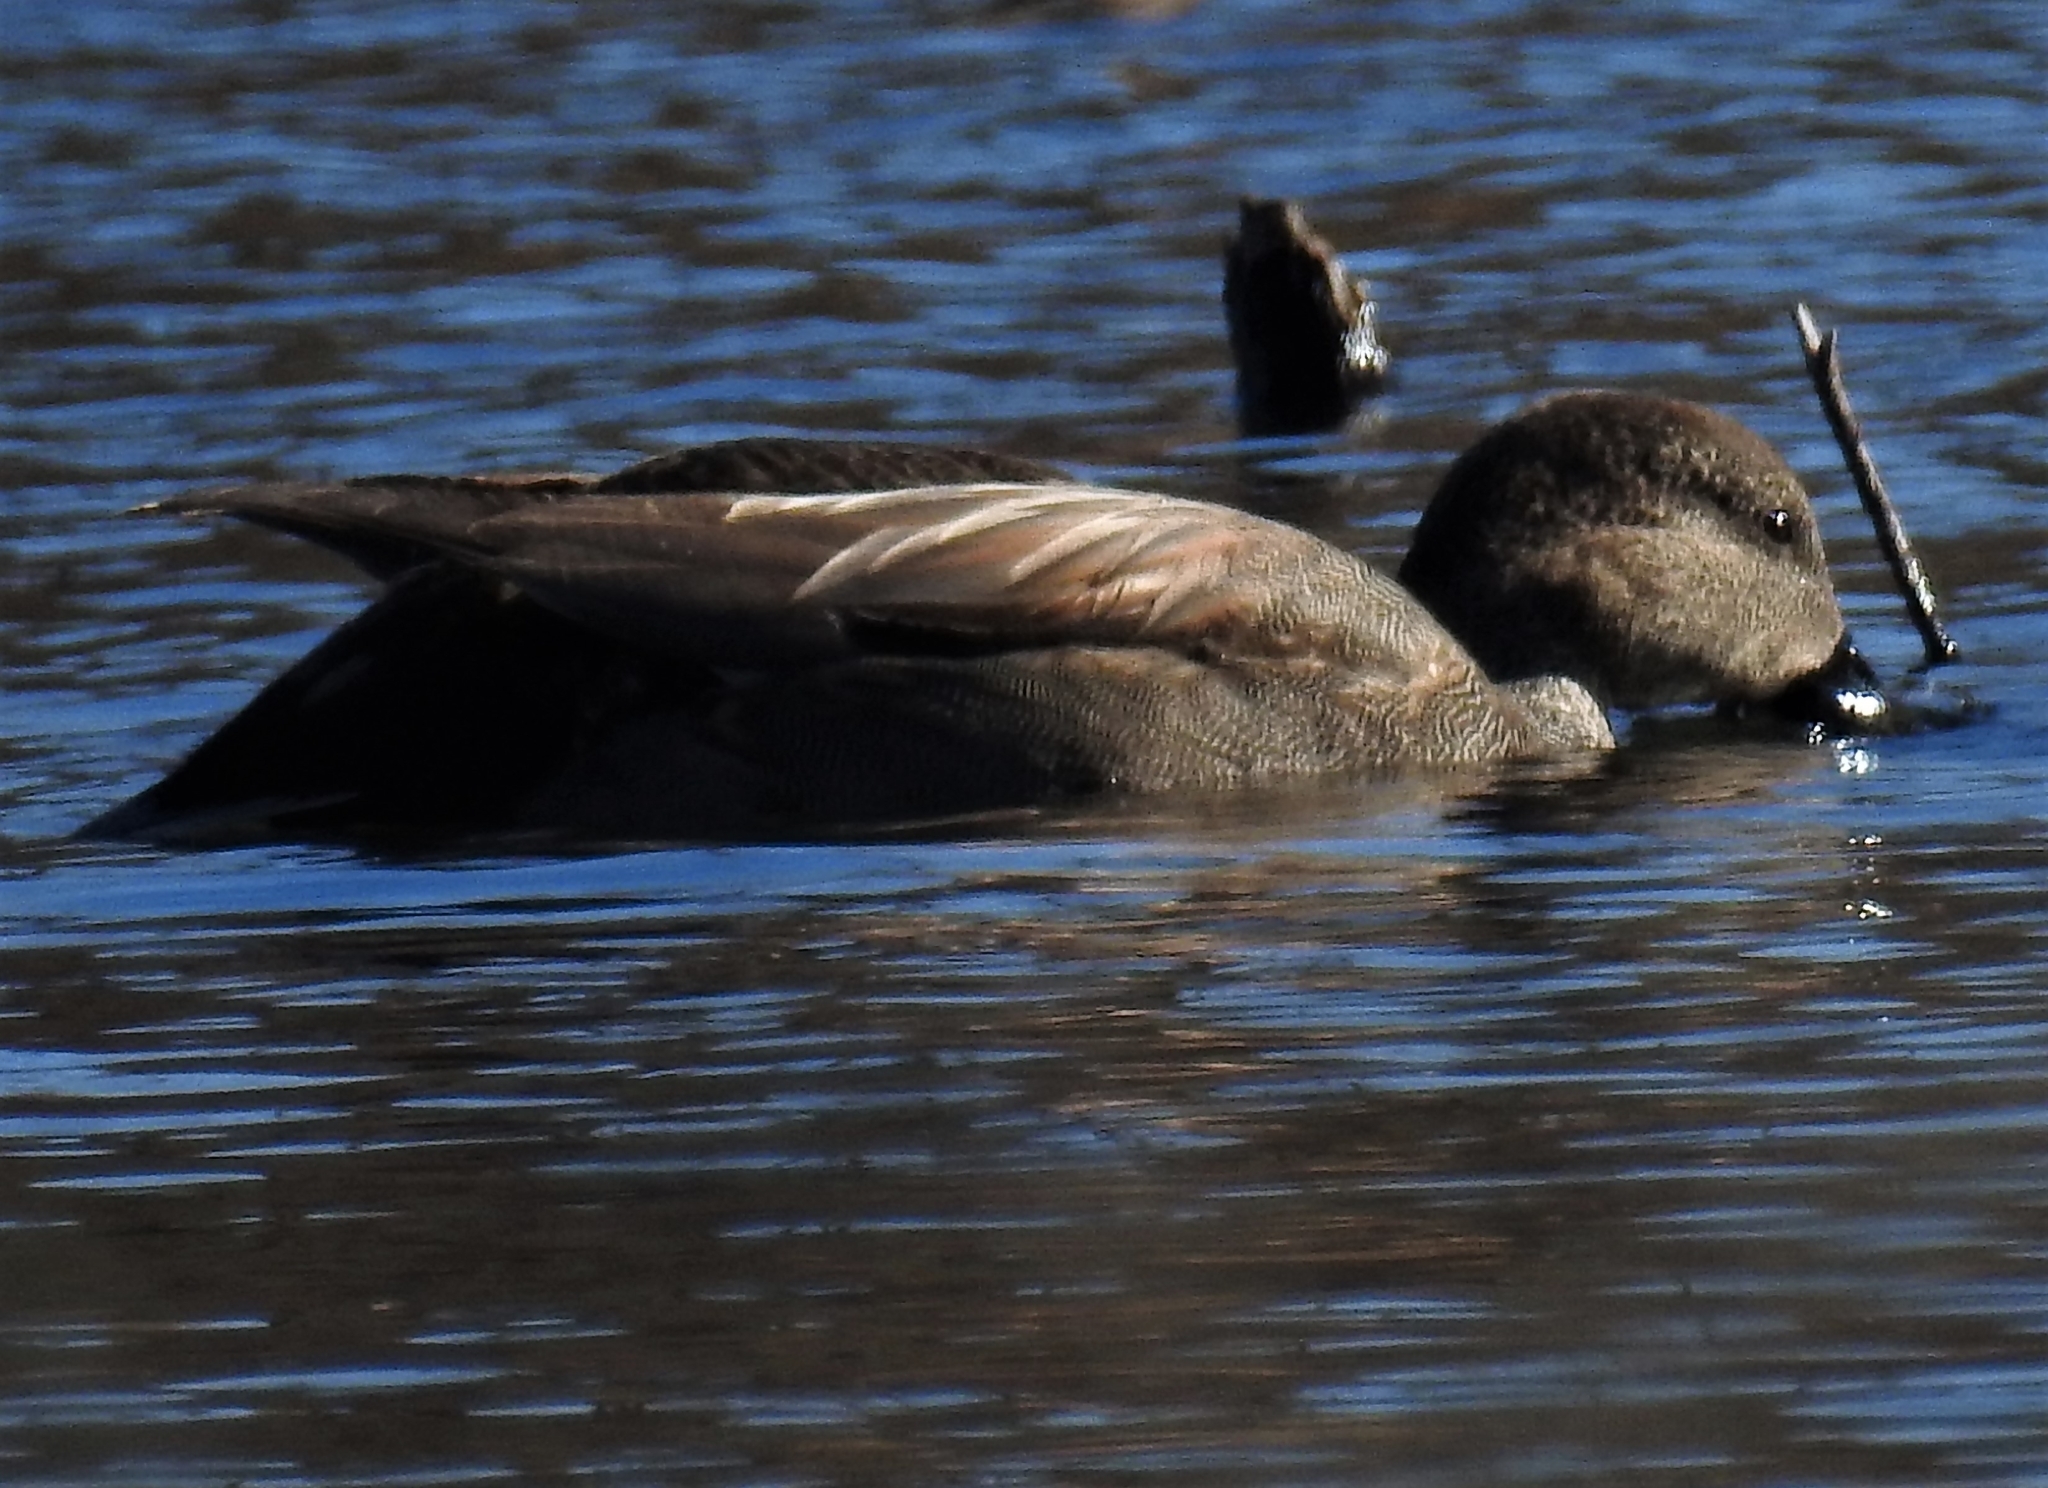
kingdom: Animalia
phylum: Chordata
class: Aves
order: Anseriformes
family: Anatidae
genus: Mareca
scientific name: Mareca strepera
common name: Gadwall
